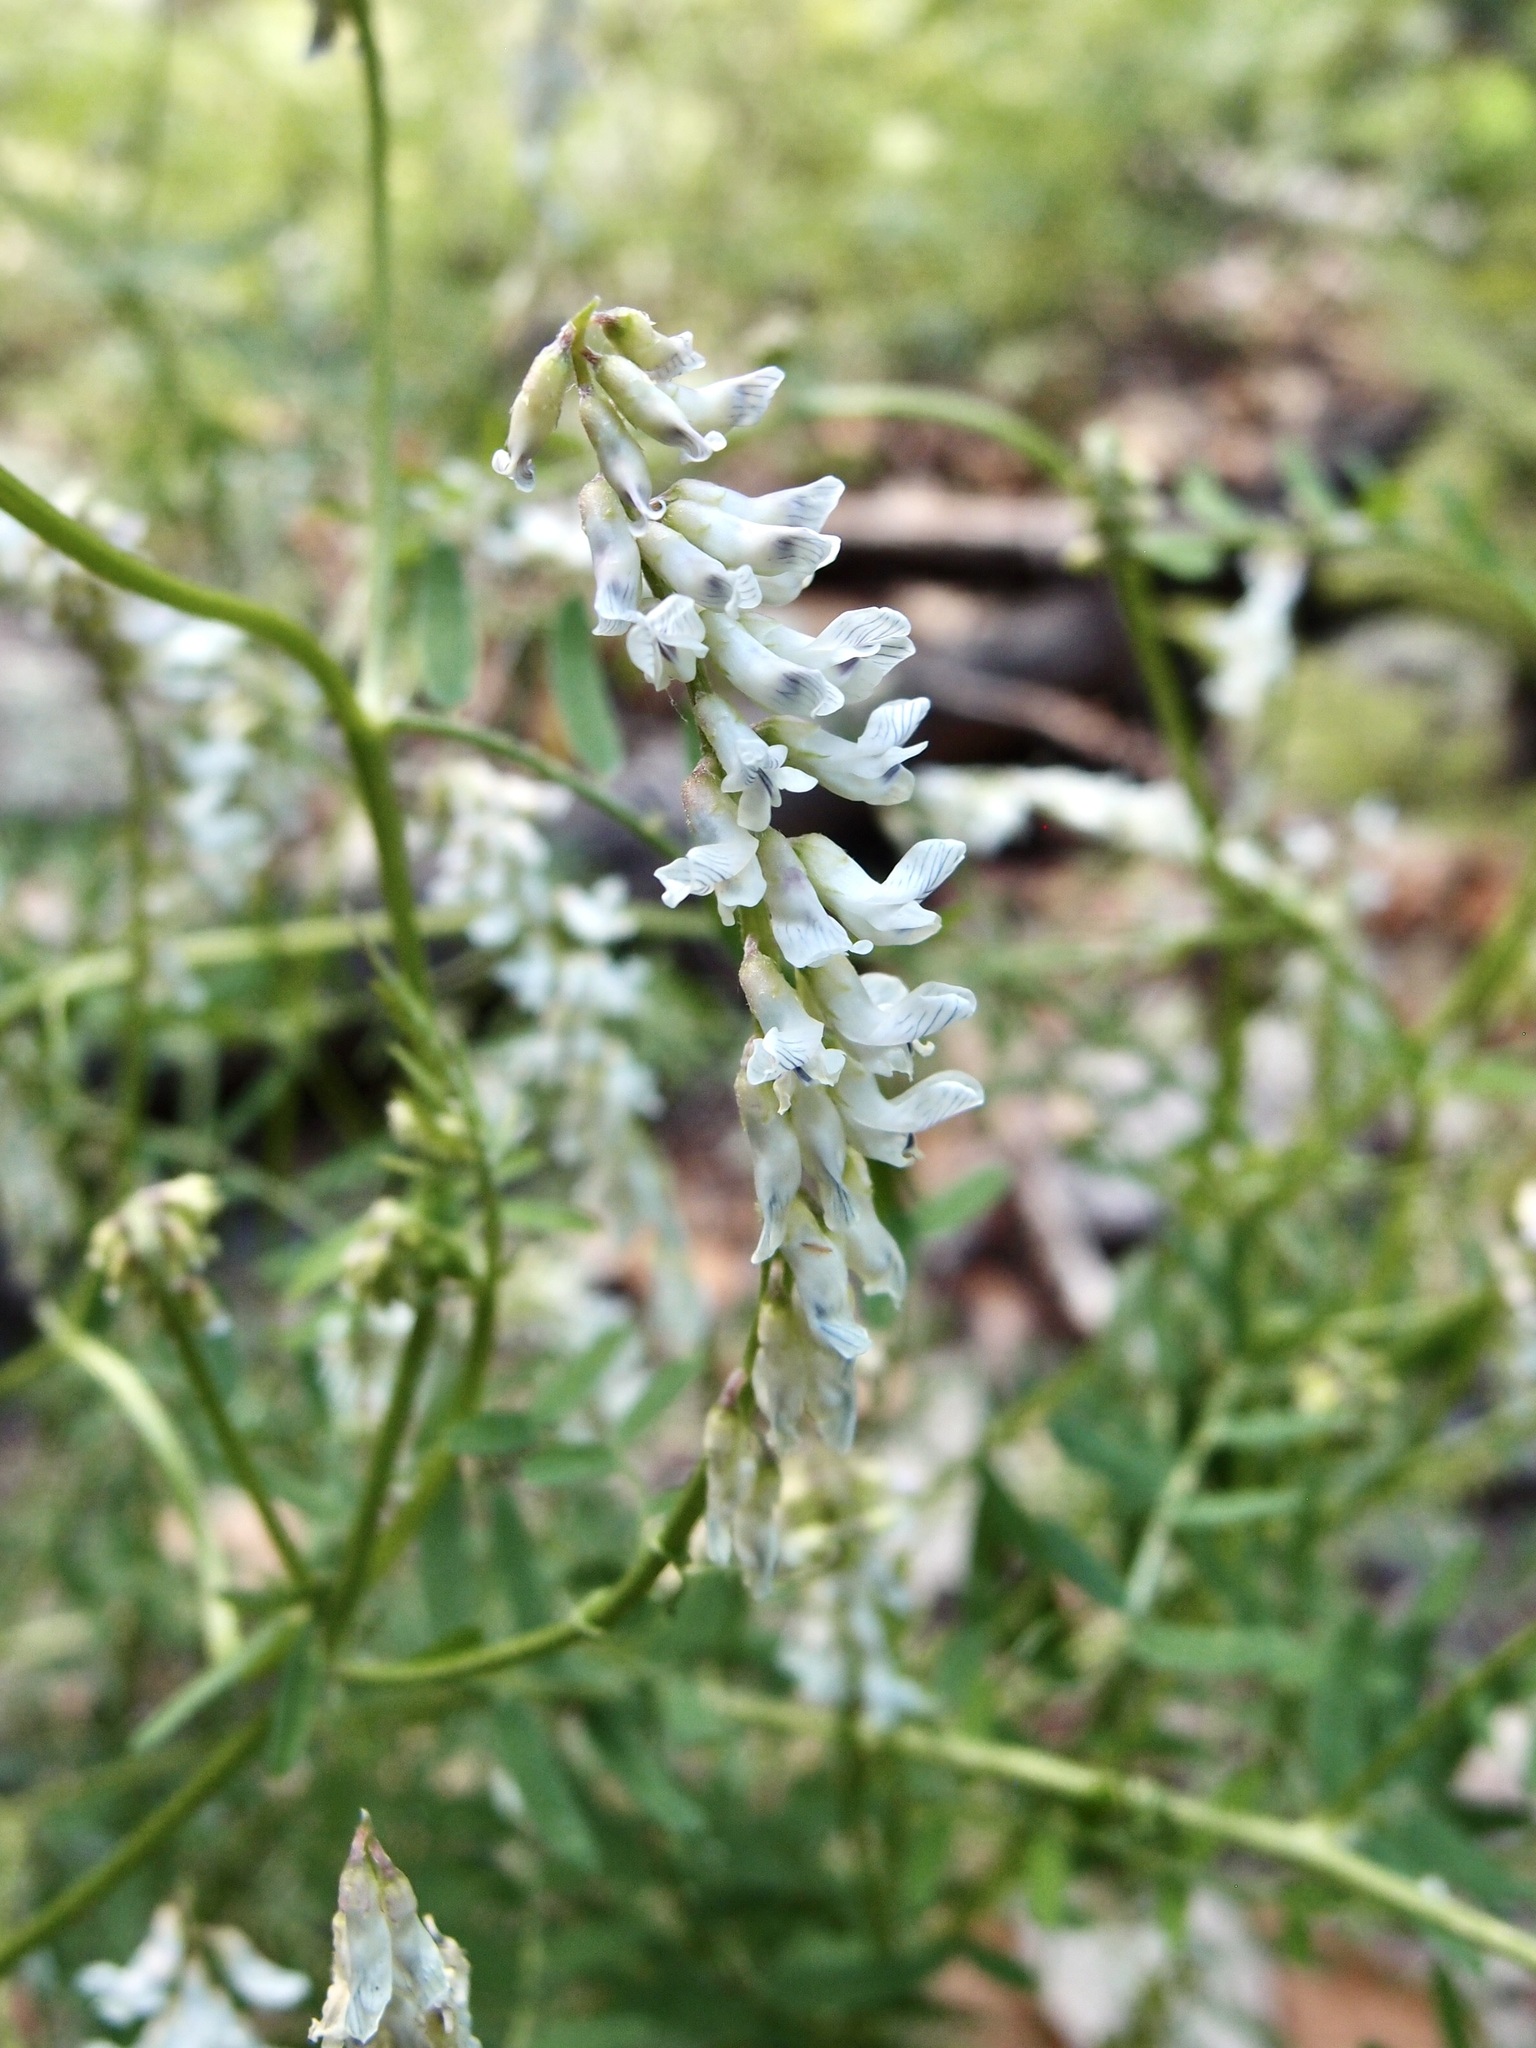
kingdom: Plantae
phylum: Tracheophyta
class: Magnoliopsida
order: Fabales
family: Fabaceae
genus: Vicia
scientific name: Vicia pulchella
